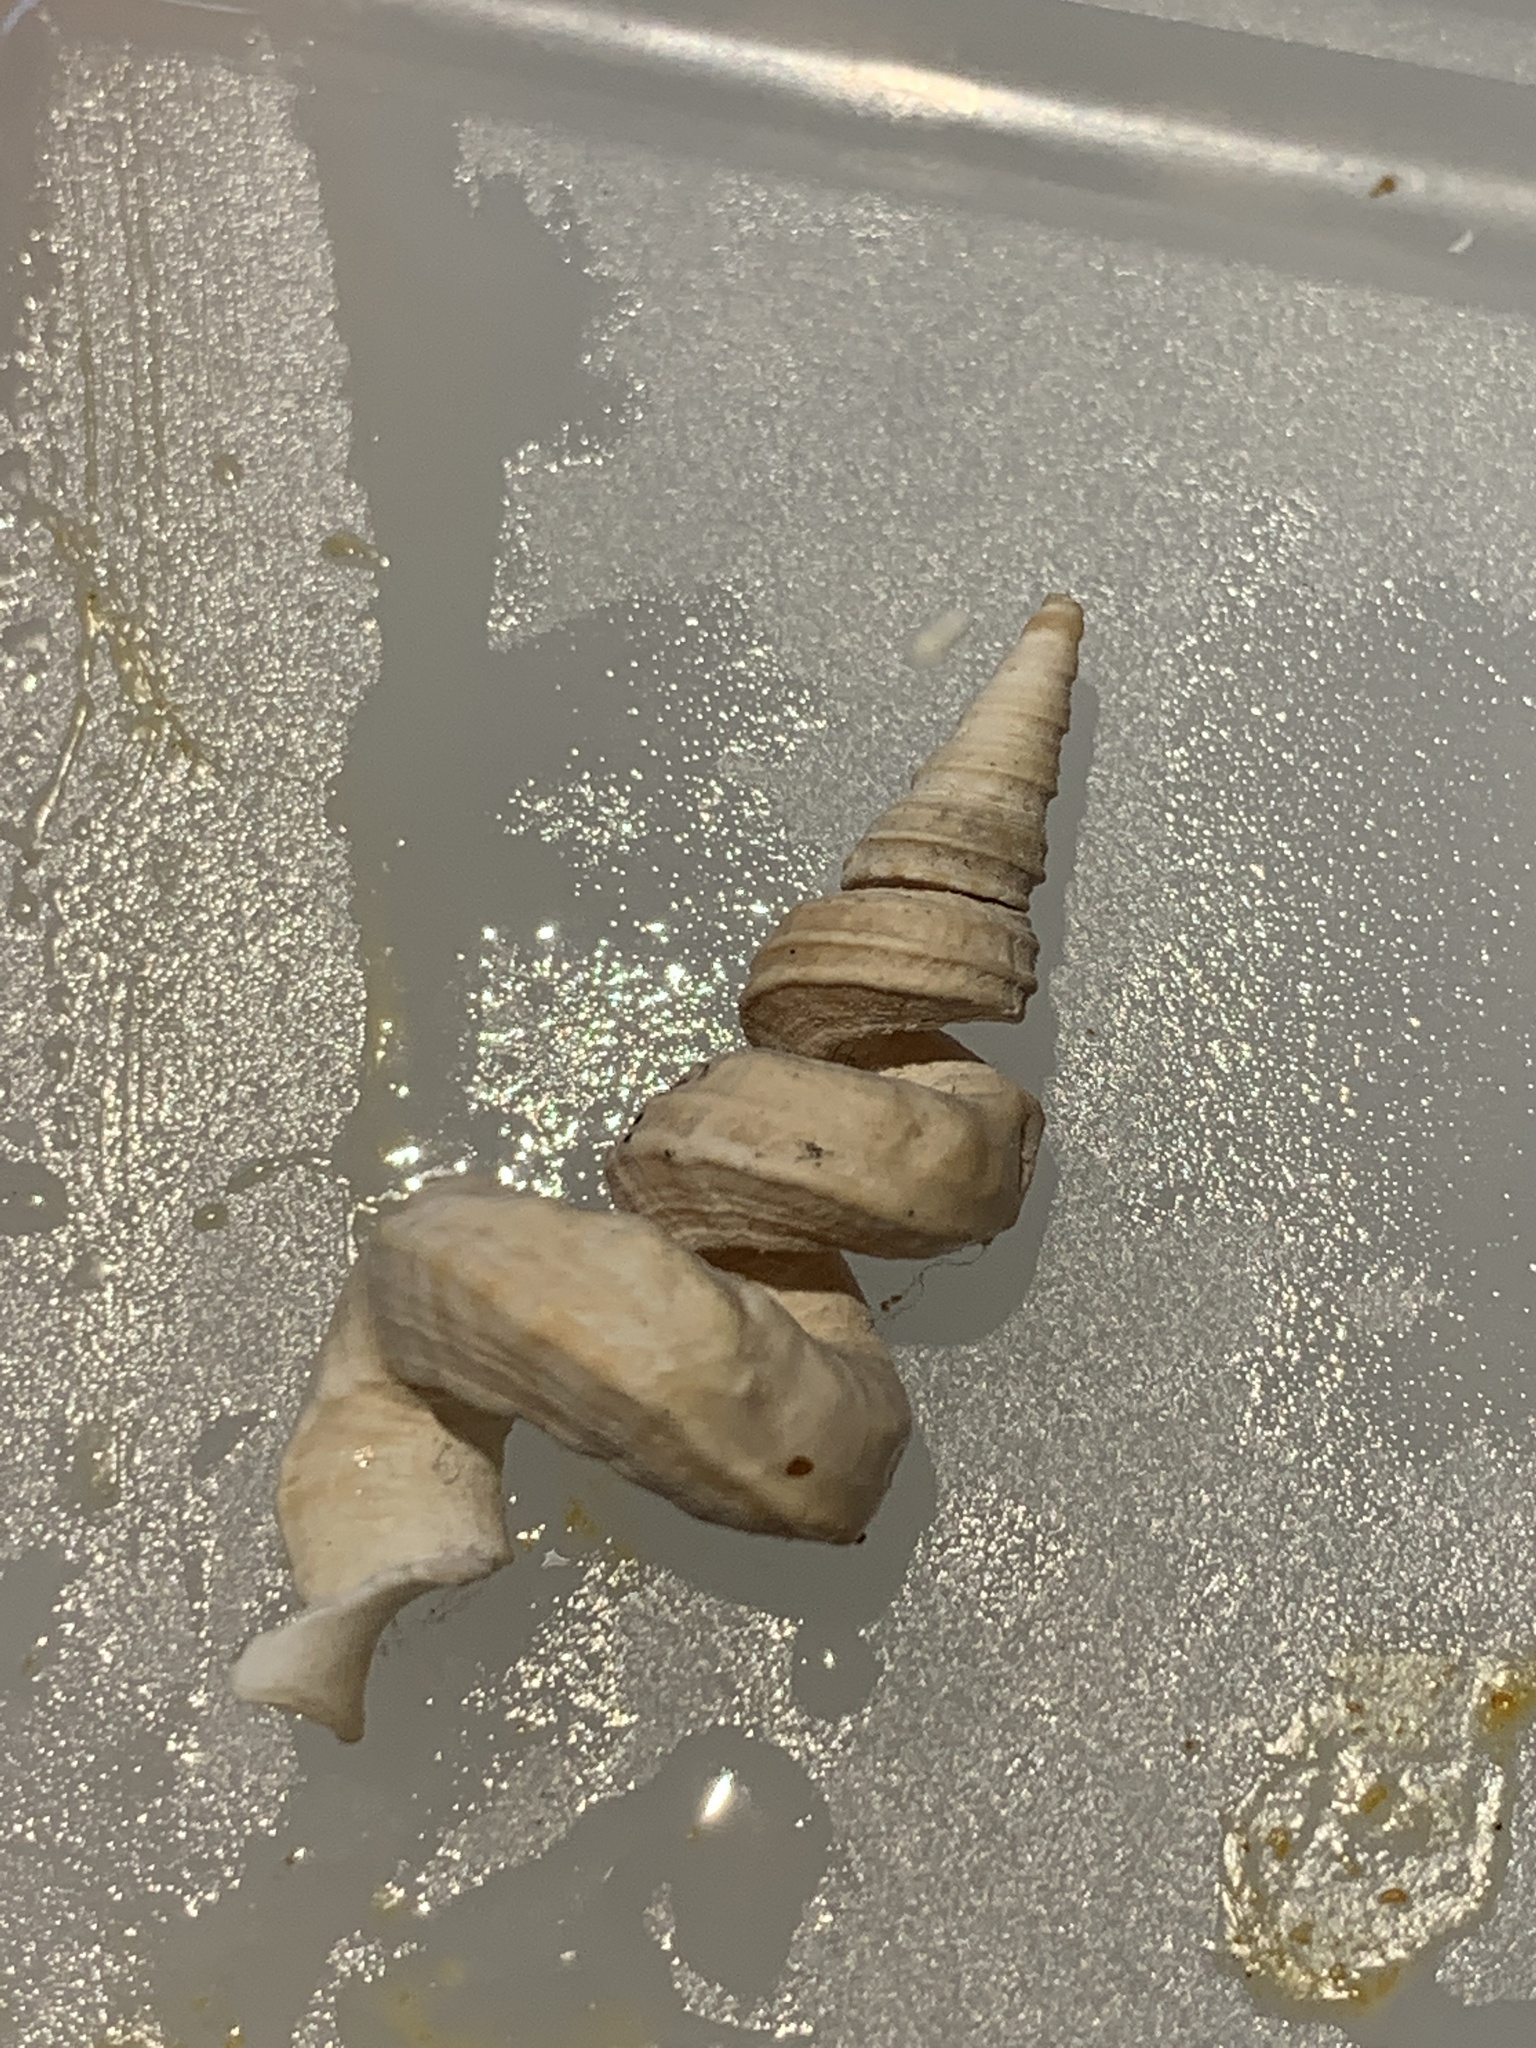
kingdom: Animalia
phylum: Mollusca
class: Gastropoda
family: Turritellidae
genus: Vermicularia
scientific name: Vermicularia fargoi
